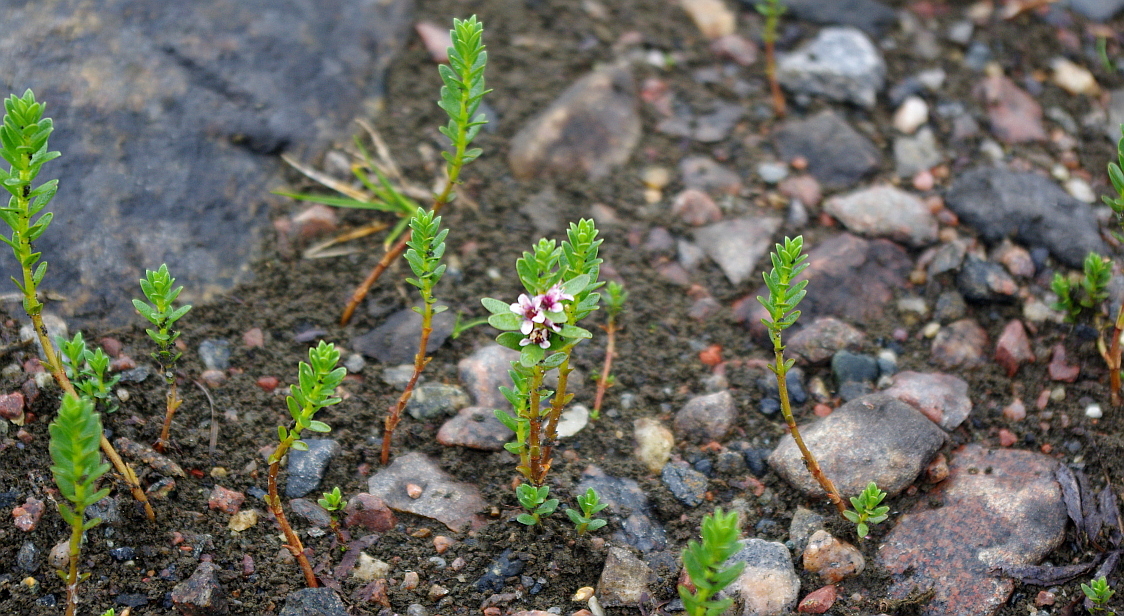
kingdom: Plantae
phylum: Tracheophyta
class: Magnoliopsida
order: Ericales
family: Primulaceae
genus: Lysimachia
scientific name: Lysimachia maritima
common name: Sea milkwort
